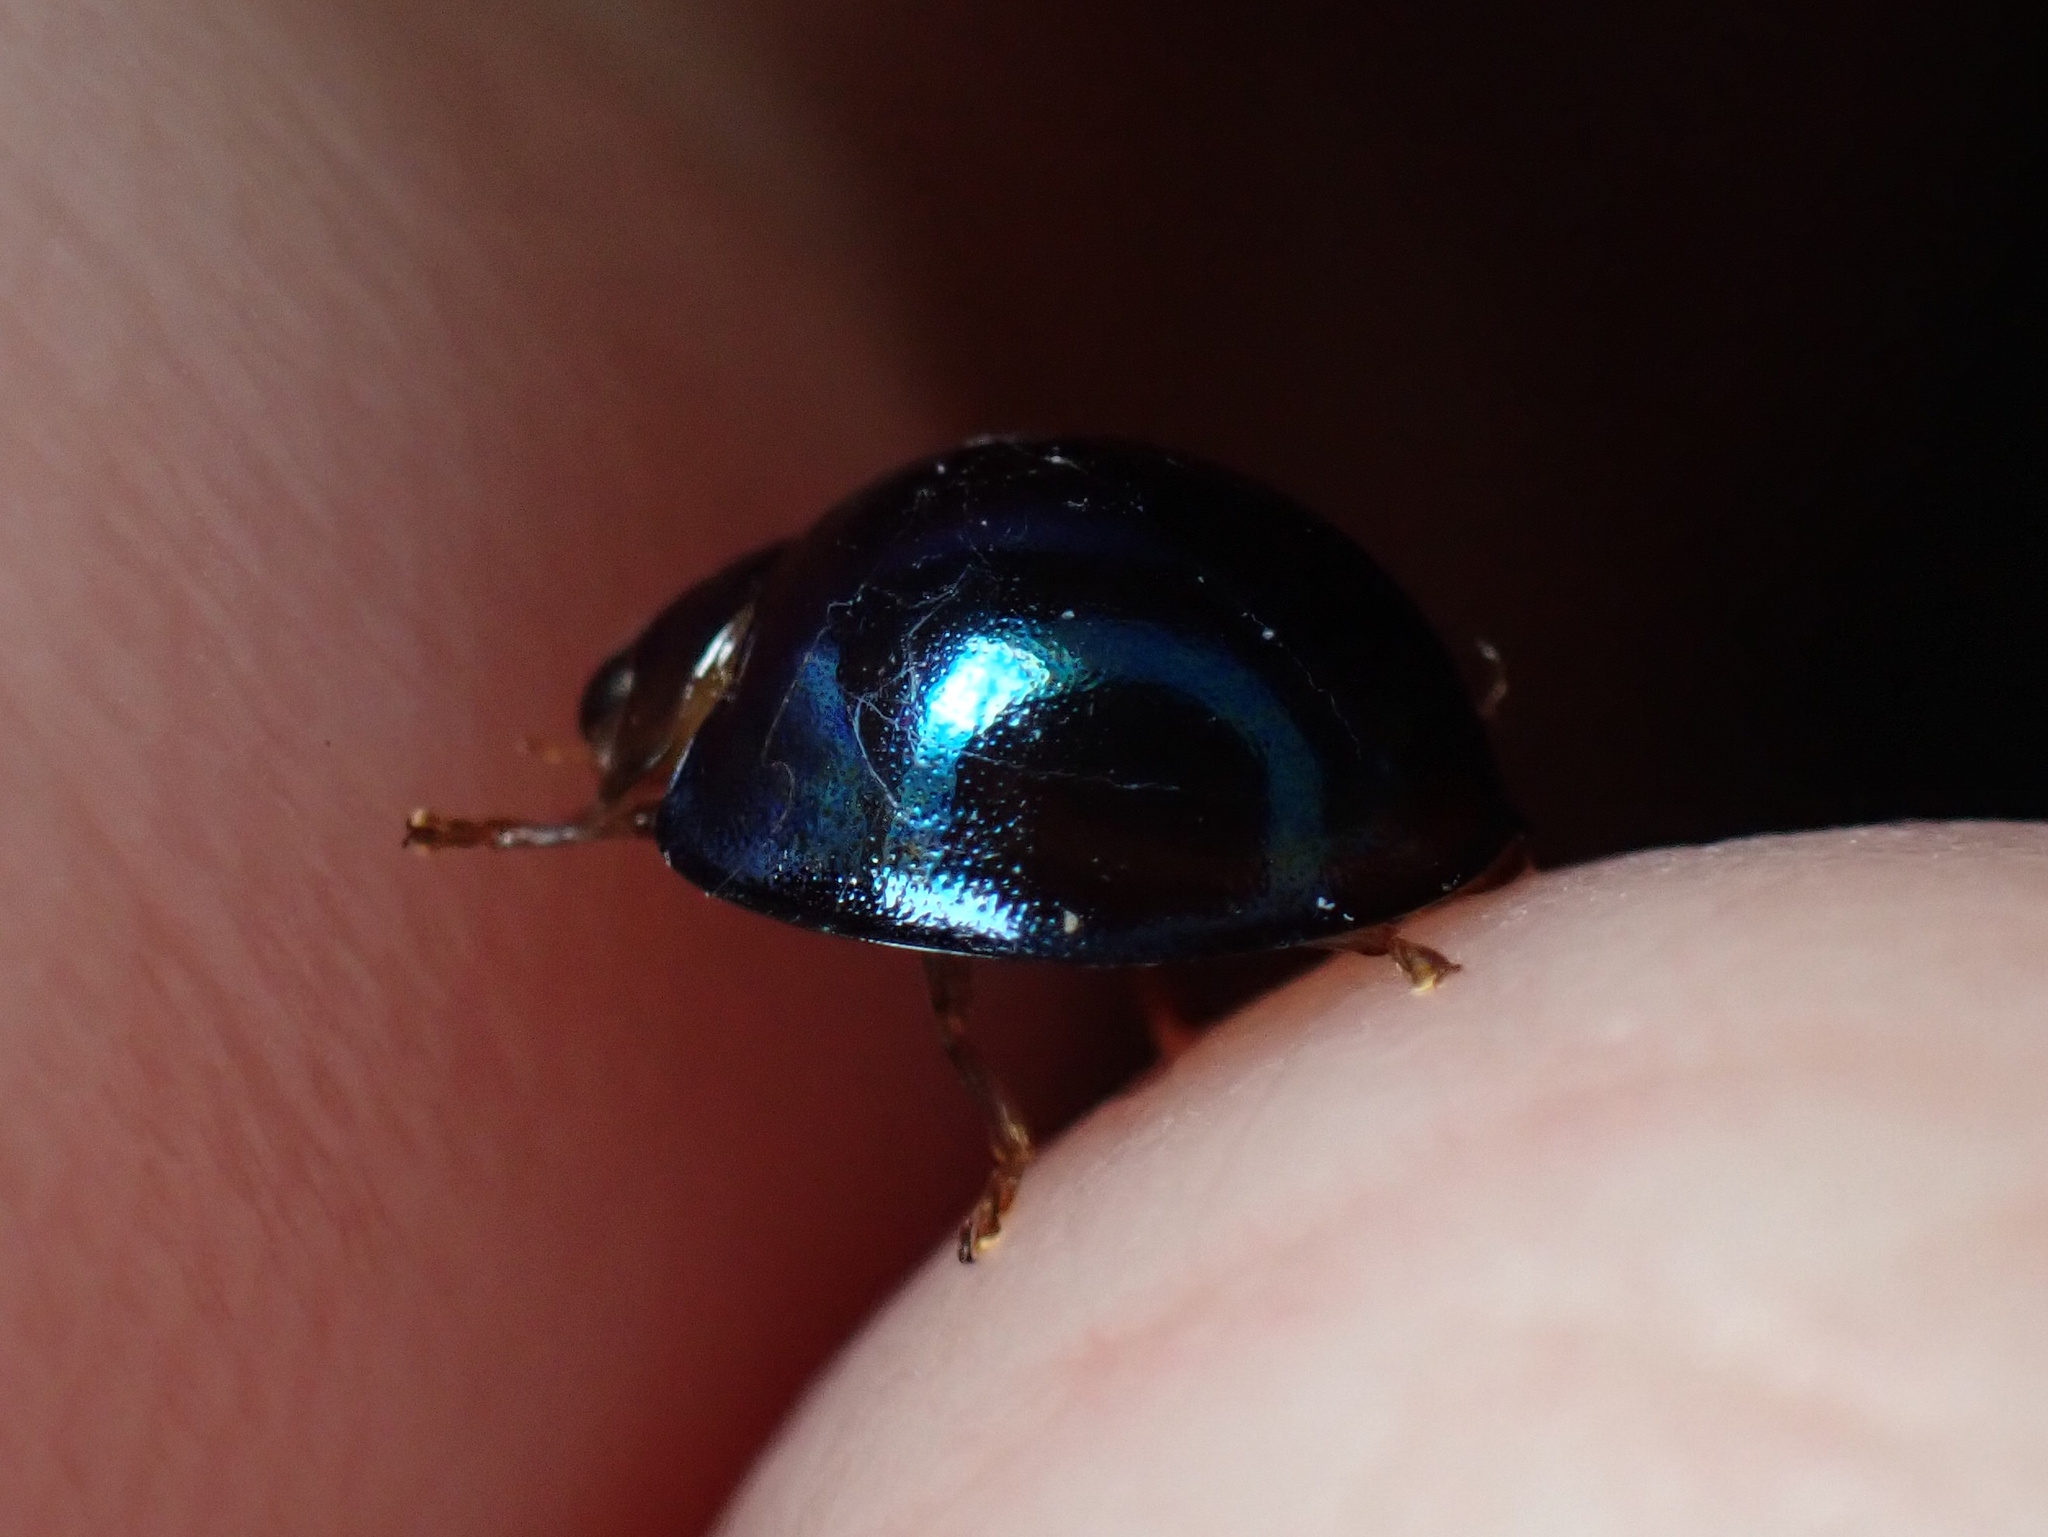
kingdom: Animalia
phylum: Arthropoda
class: Insecta
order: Coleoptera
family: Coccinellidae
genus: Halmus
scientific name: Halmus chalybeus
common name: Steel blue ladybird beetle
